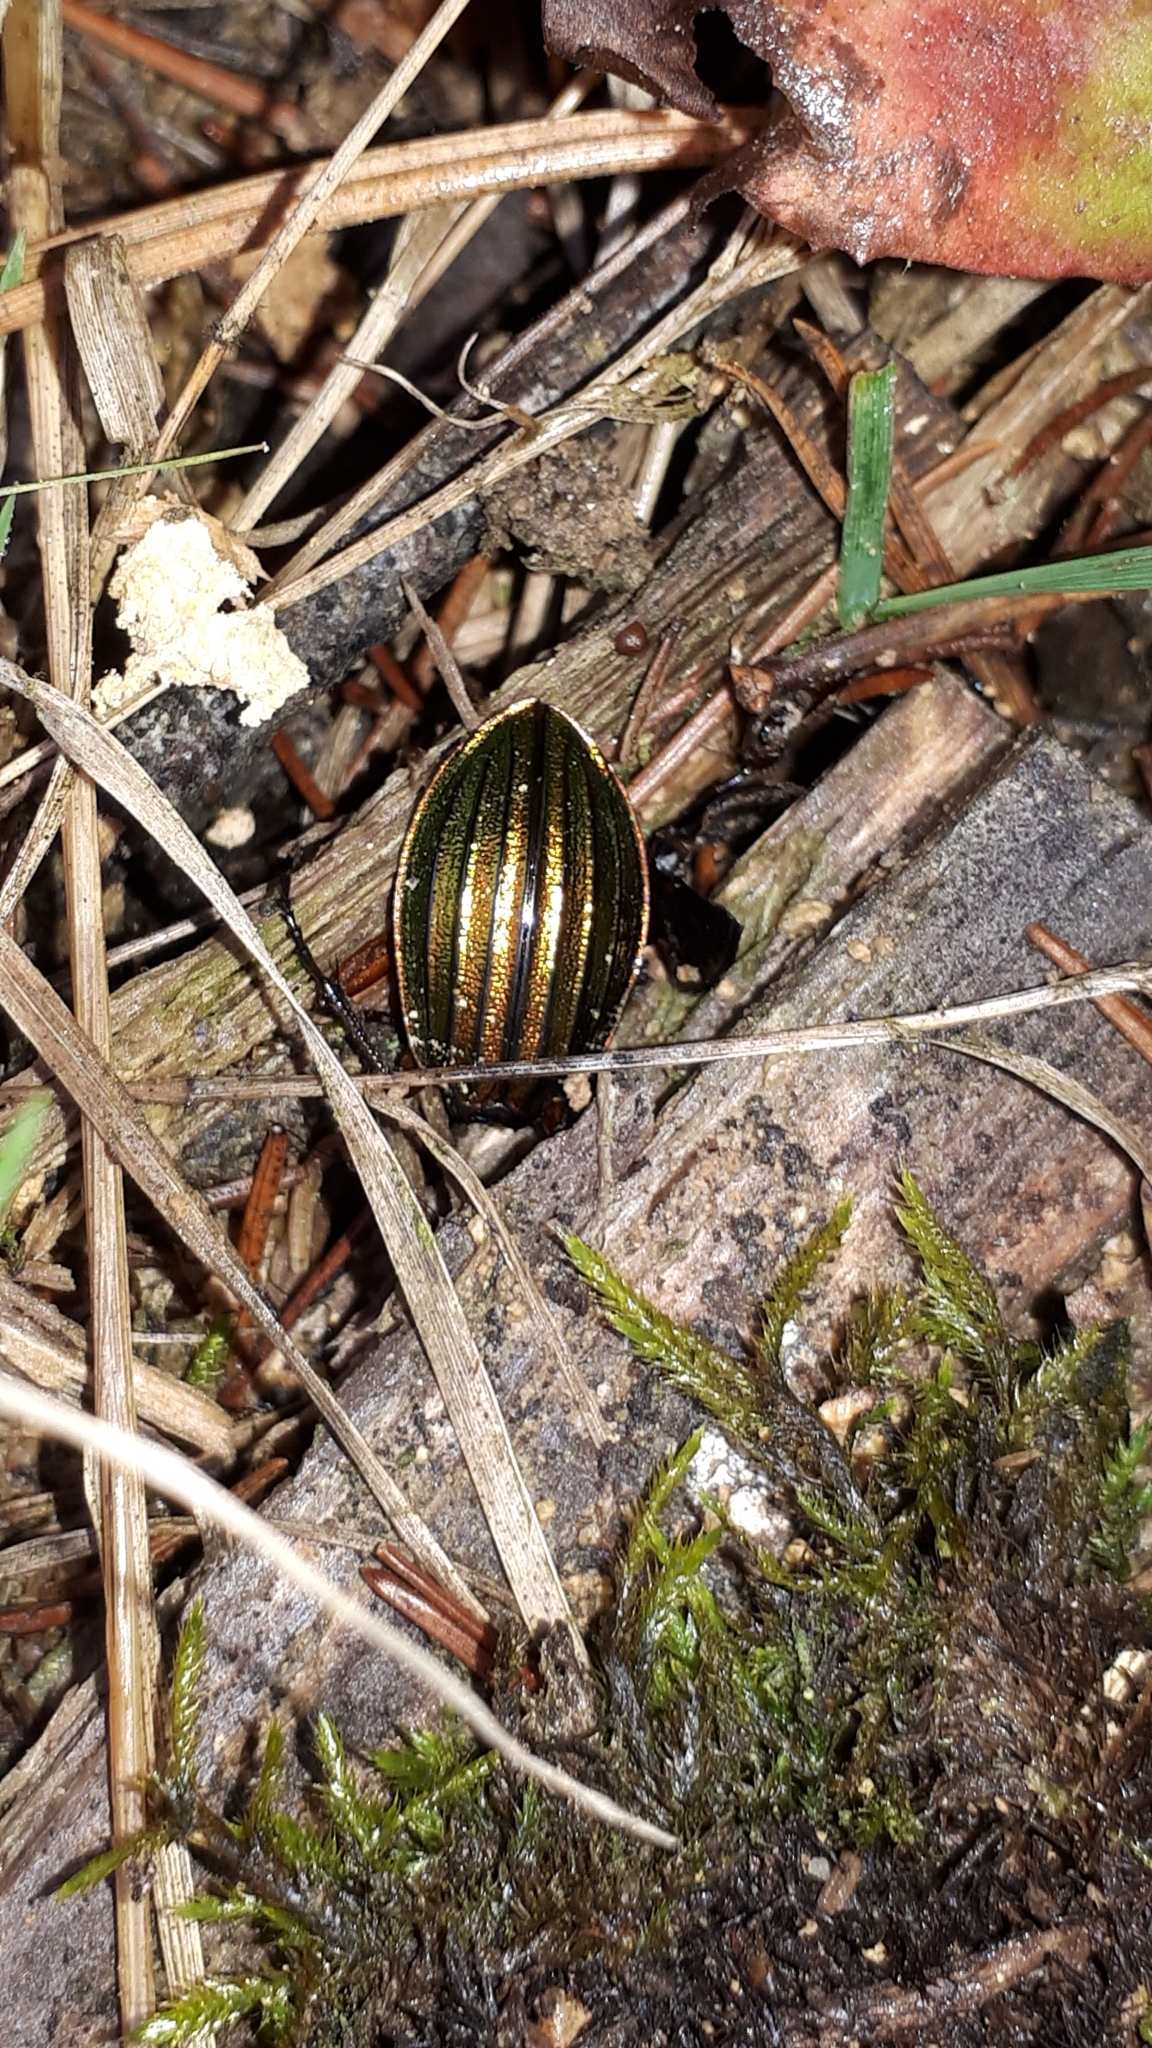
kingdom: Animalia
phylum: Arthropoda
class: Insecta
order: Coleoptera
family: Carabidae
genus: Carabus
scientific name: Carabus auronitens
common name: Carabus auronitens
